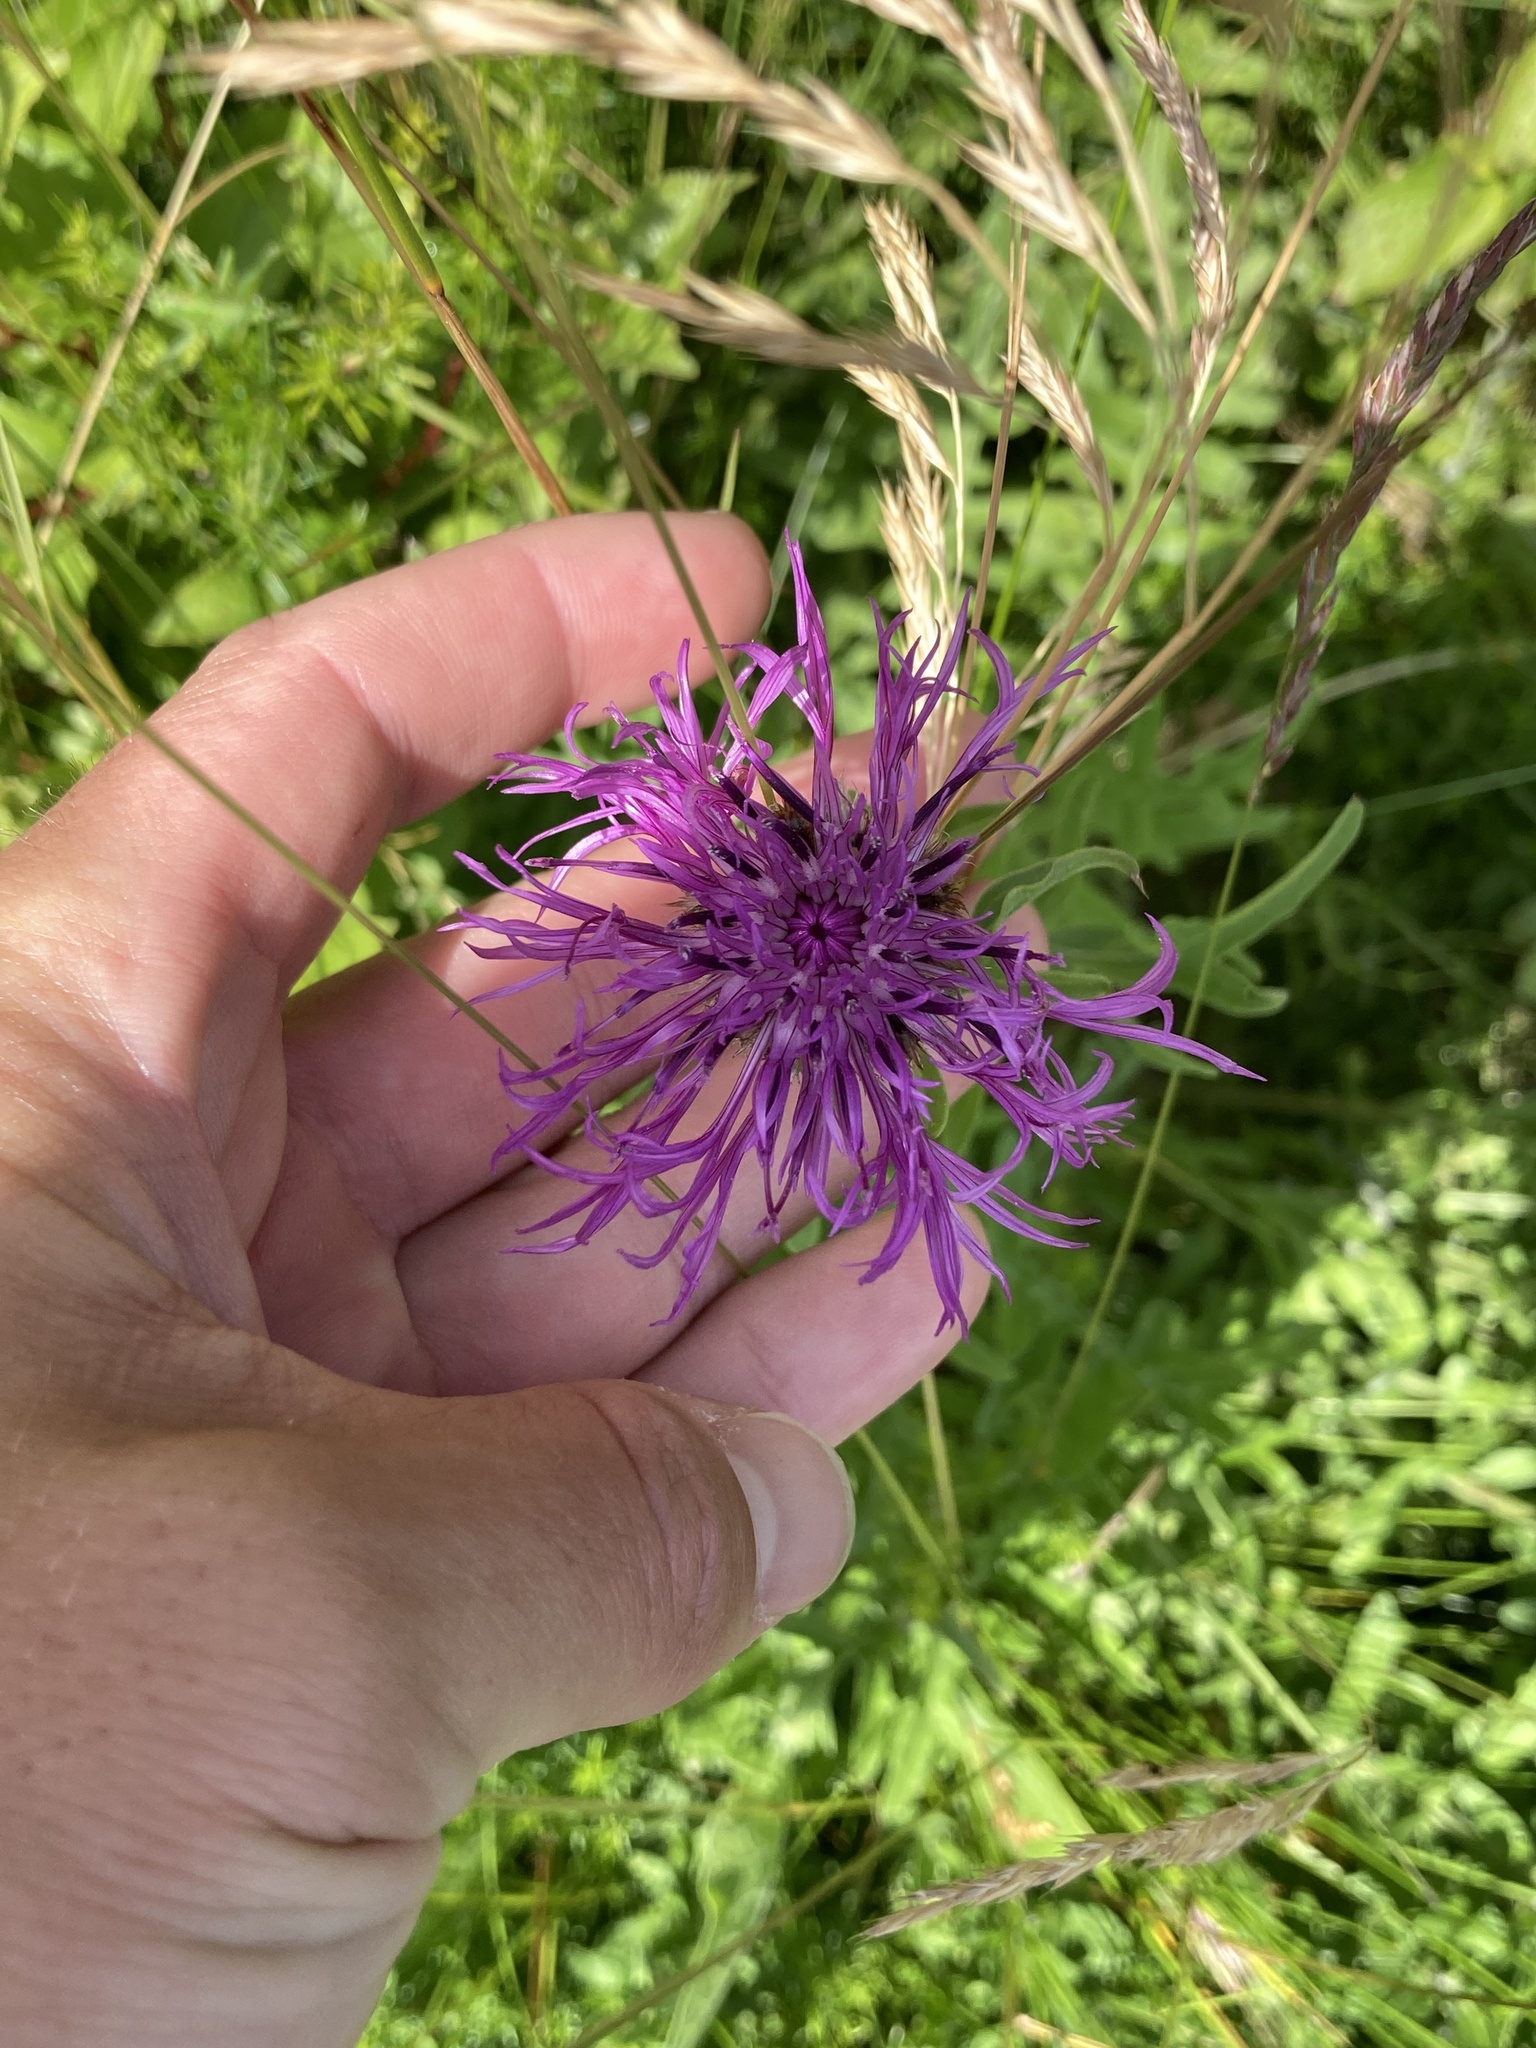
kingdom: Plantae
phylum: Tracheophyta
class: Magnoliopsida
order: Asterales
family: Asteraceae
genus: Centaurea
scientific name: Centaurea scabiosa
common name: Greater knapweed
